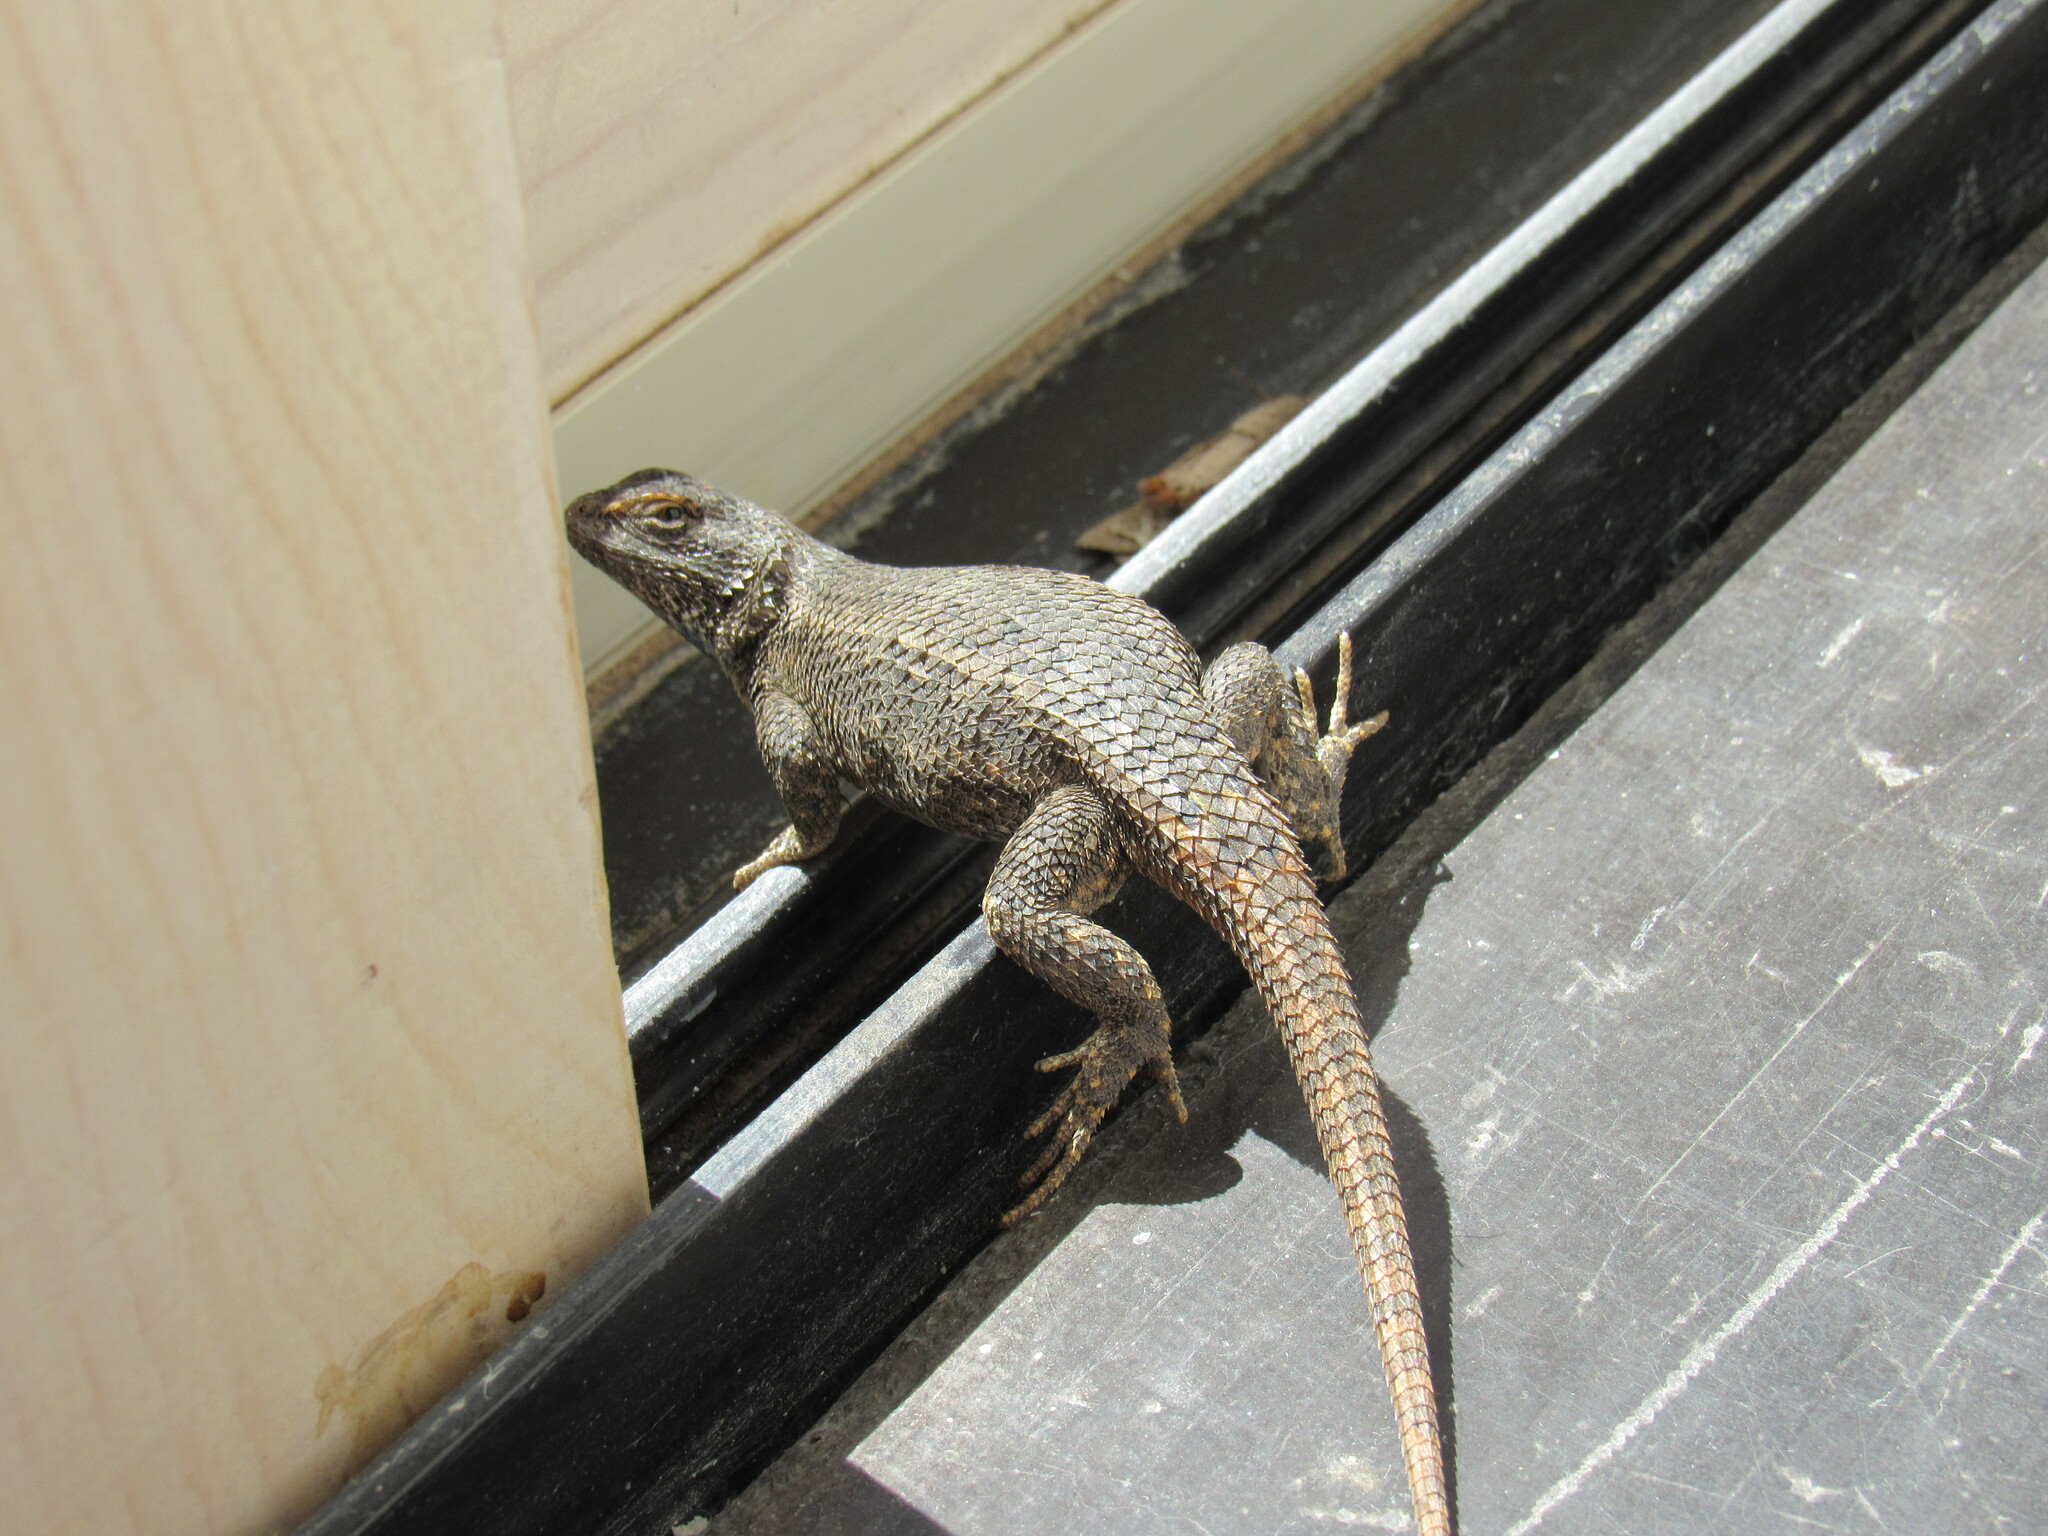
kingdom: Animalia
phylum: Chordata
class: Squamata
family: Phrynosomatidae
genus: Sceloporus
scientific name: Sceloporus cowlesi
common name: White sands prairie lizard
